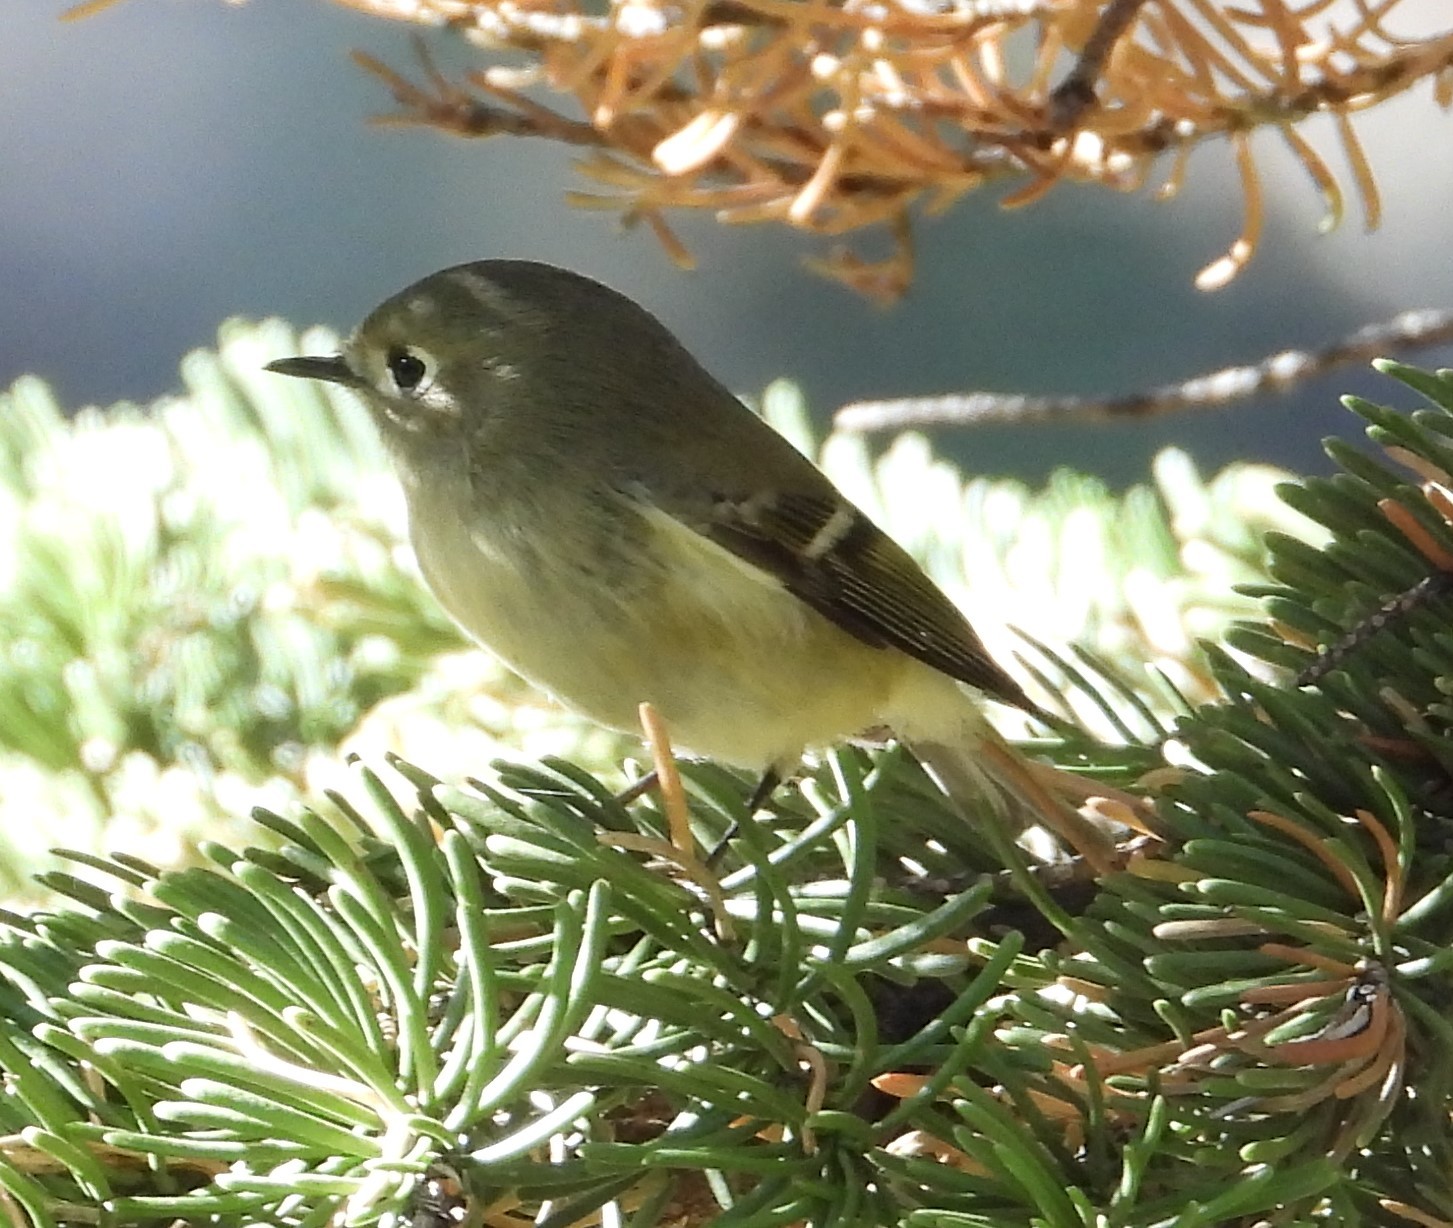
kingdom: Animalia
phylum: Chordata
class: Aves
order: Passeriformes
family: Regulidae
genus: Regulus
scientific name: Regulus calendula
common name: Ruby-crowned kinglet
